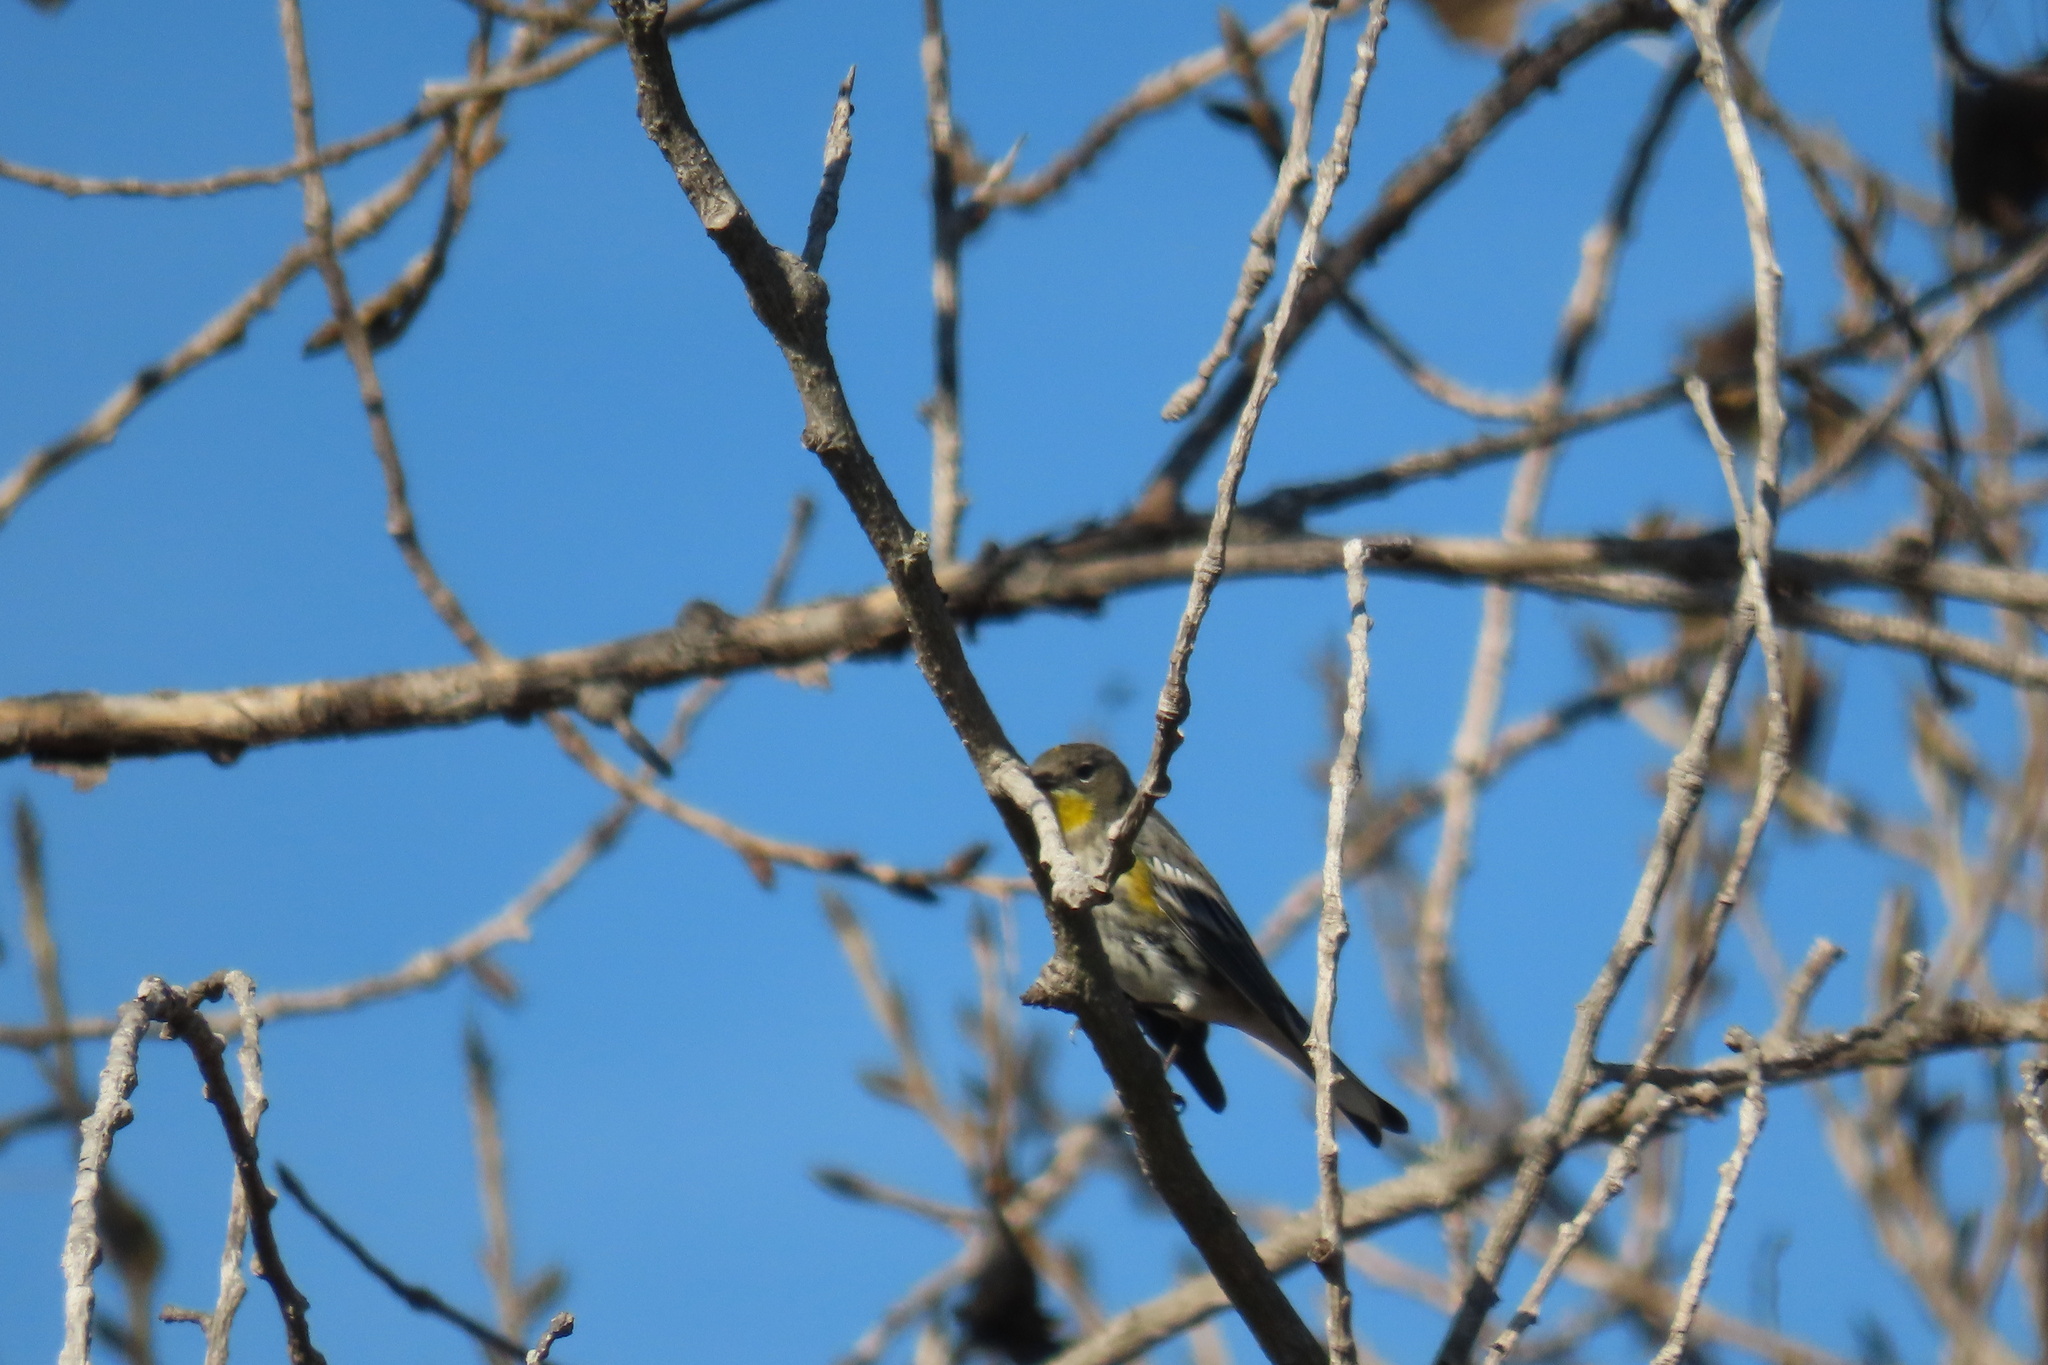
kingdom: Animalia
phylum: Chordata
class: Aves
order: Passeriformes
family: Parulidae
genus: Setophaga
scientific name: Setophaga coronata
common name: Myrtle warbler
